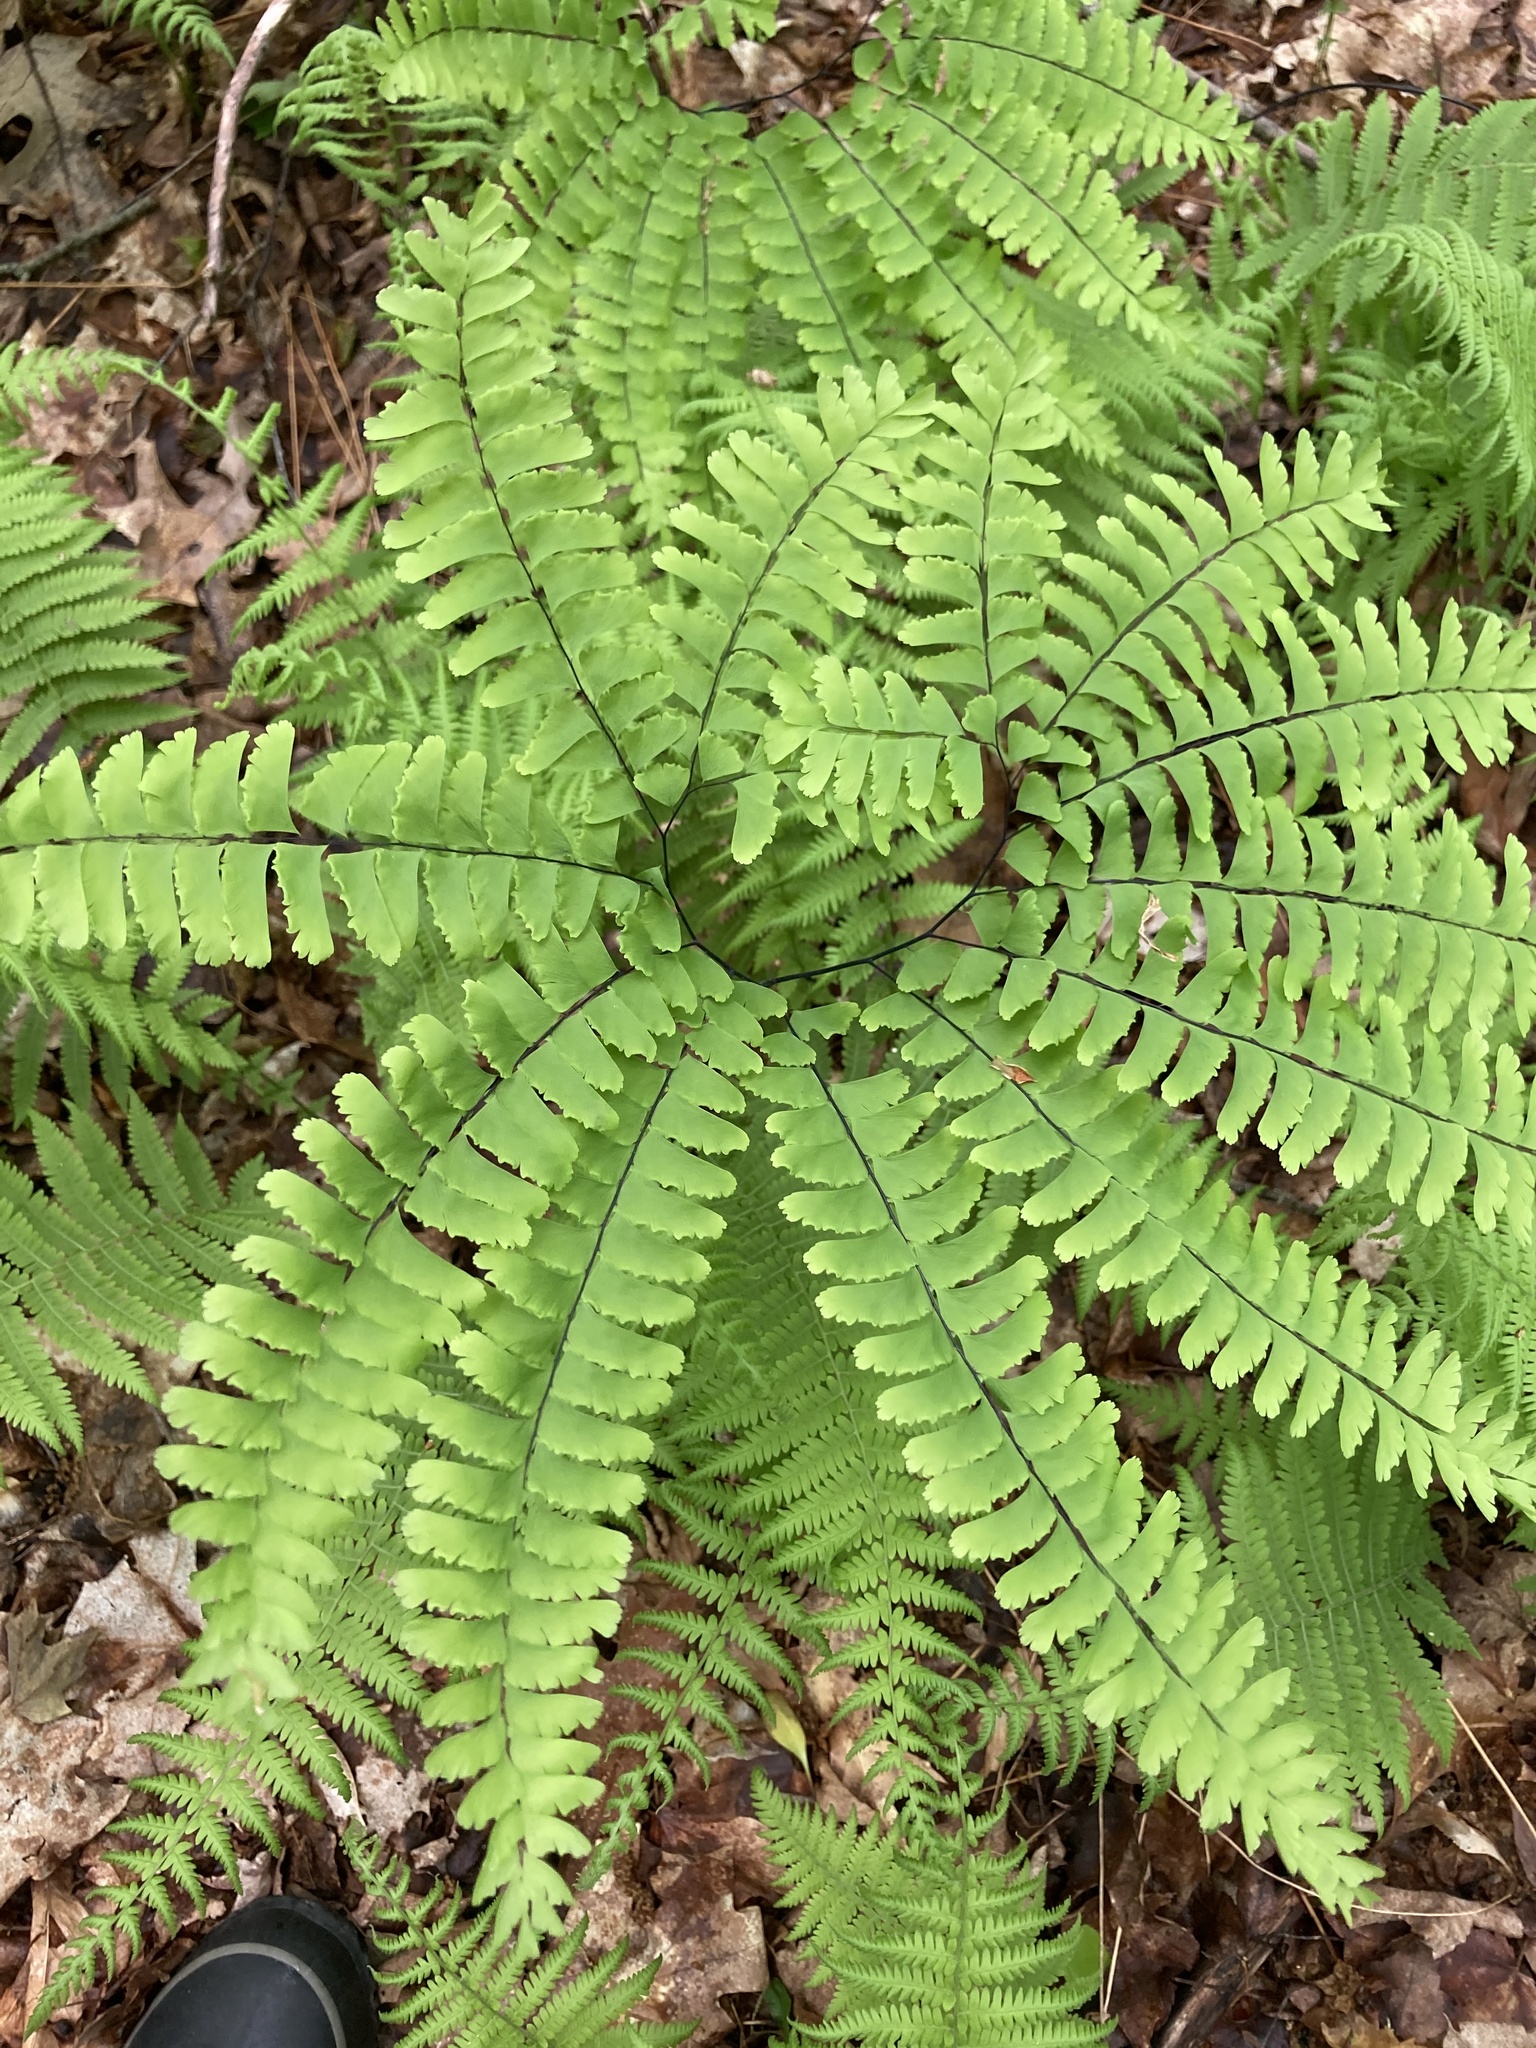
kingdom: Plantae
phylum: Tracheophyta
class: Polypodiopsida
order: Polypodiales
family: Pteridaceae
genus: Adiantum
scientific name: Adiantum pedatum
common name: Five-finger fern
